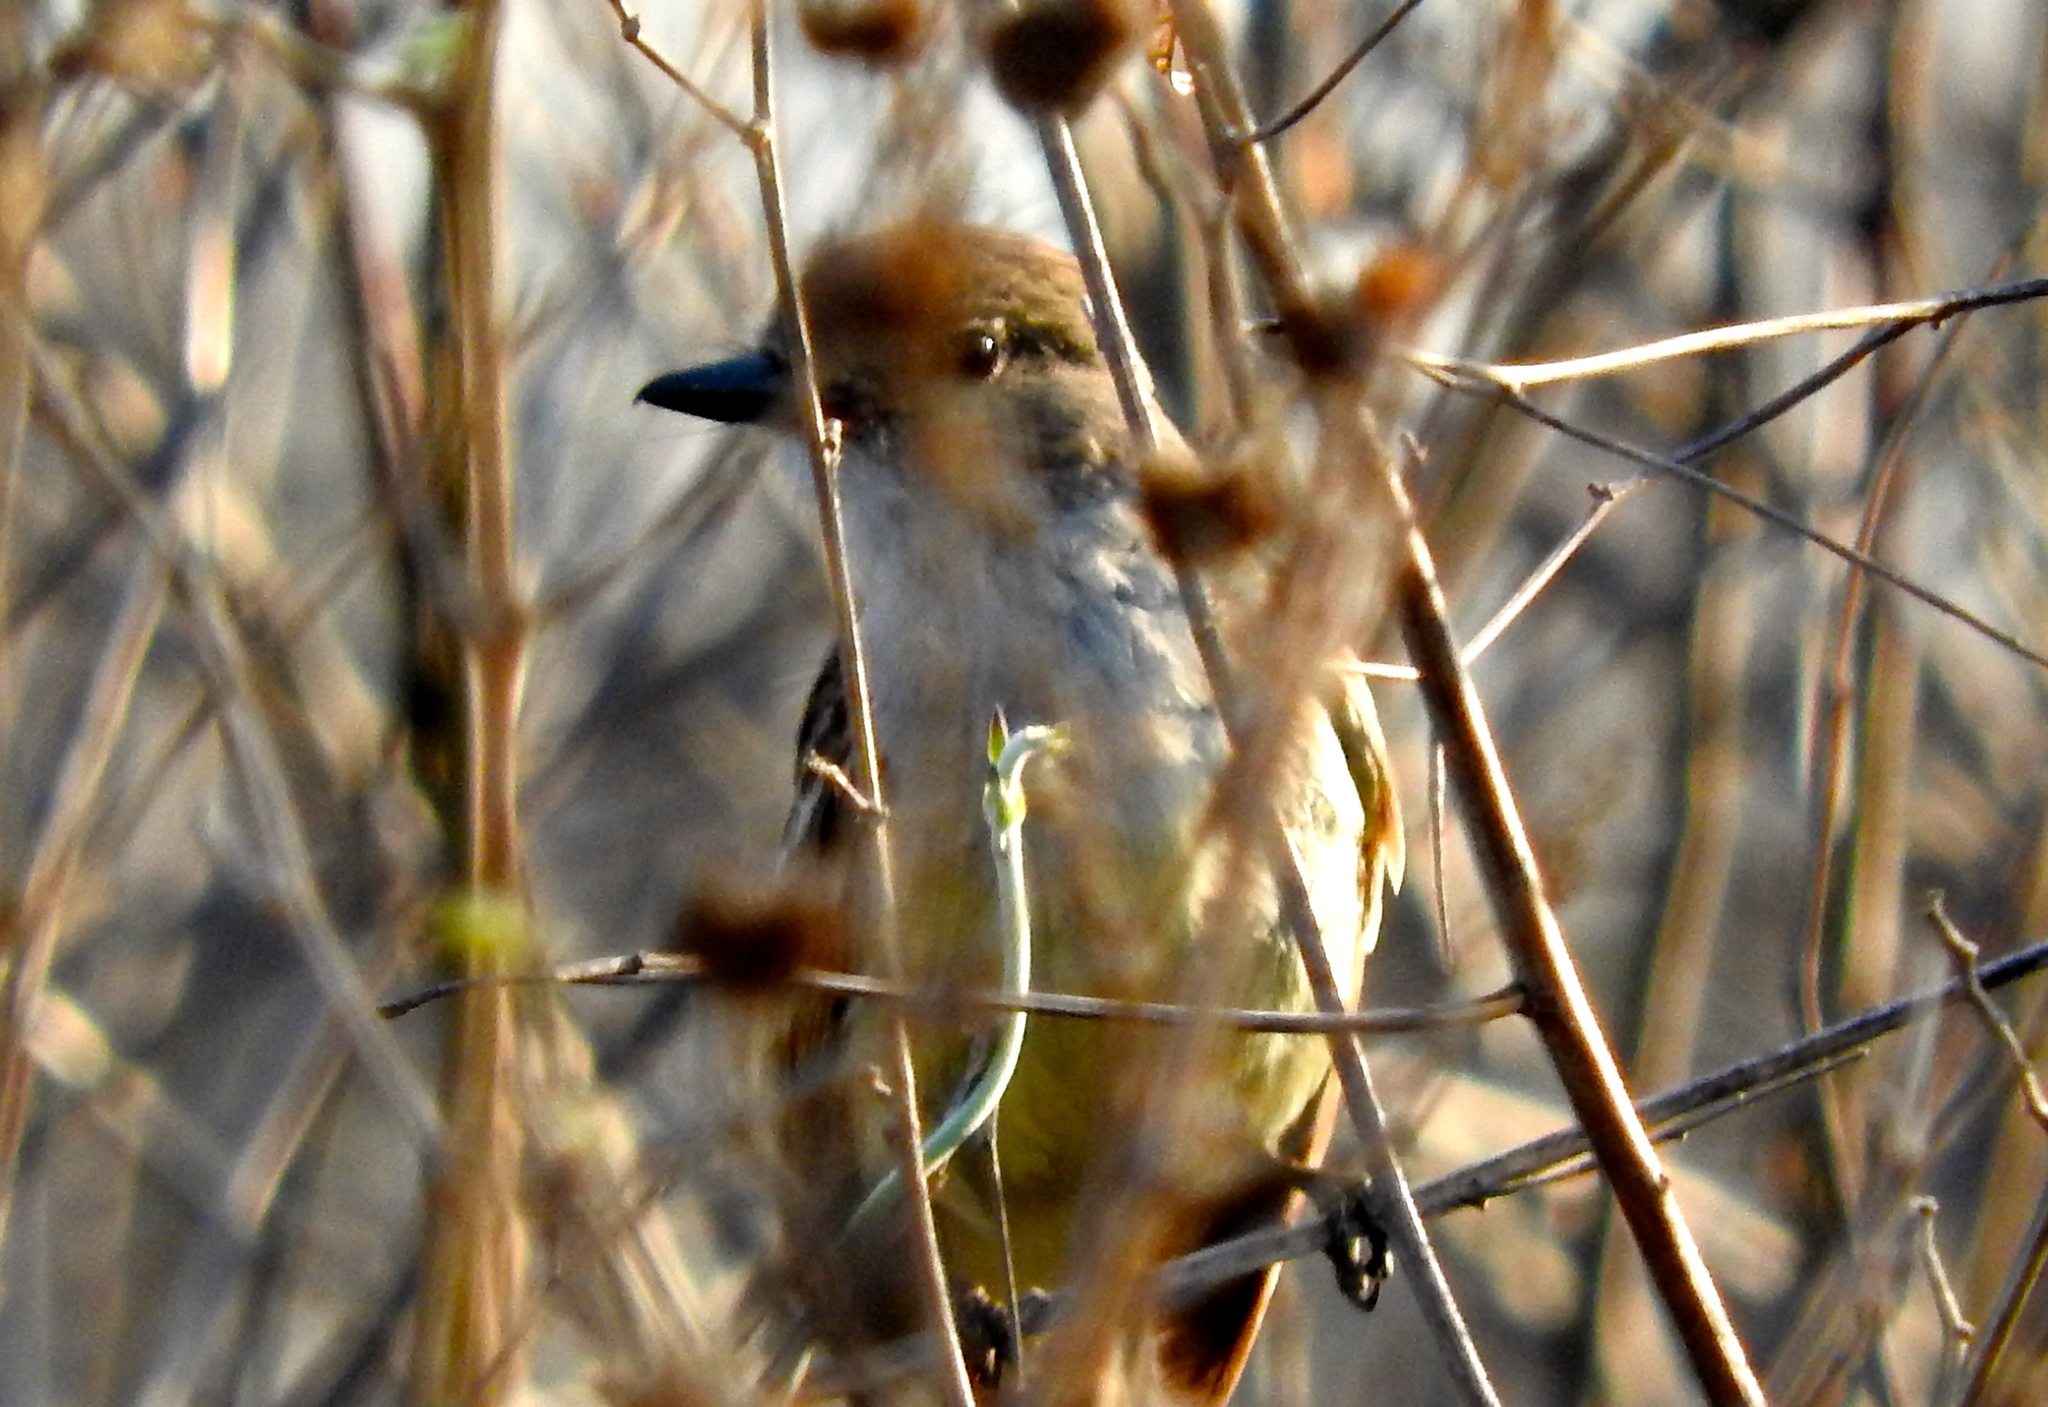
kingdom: Animalia
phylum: Chordata
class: Aves
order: Passeriformes
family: Tyrannidae
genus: Myiarchus
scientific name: Myiarchus
